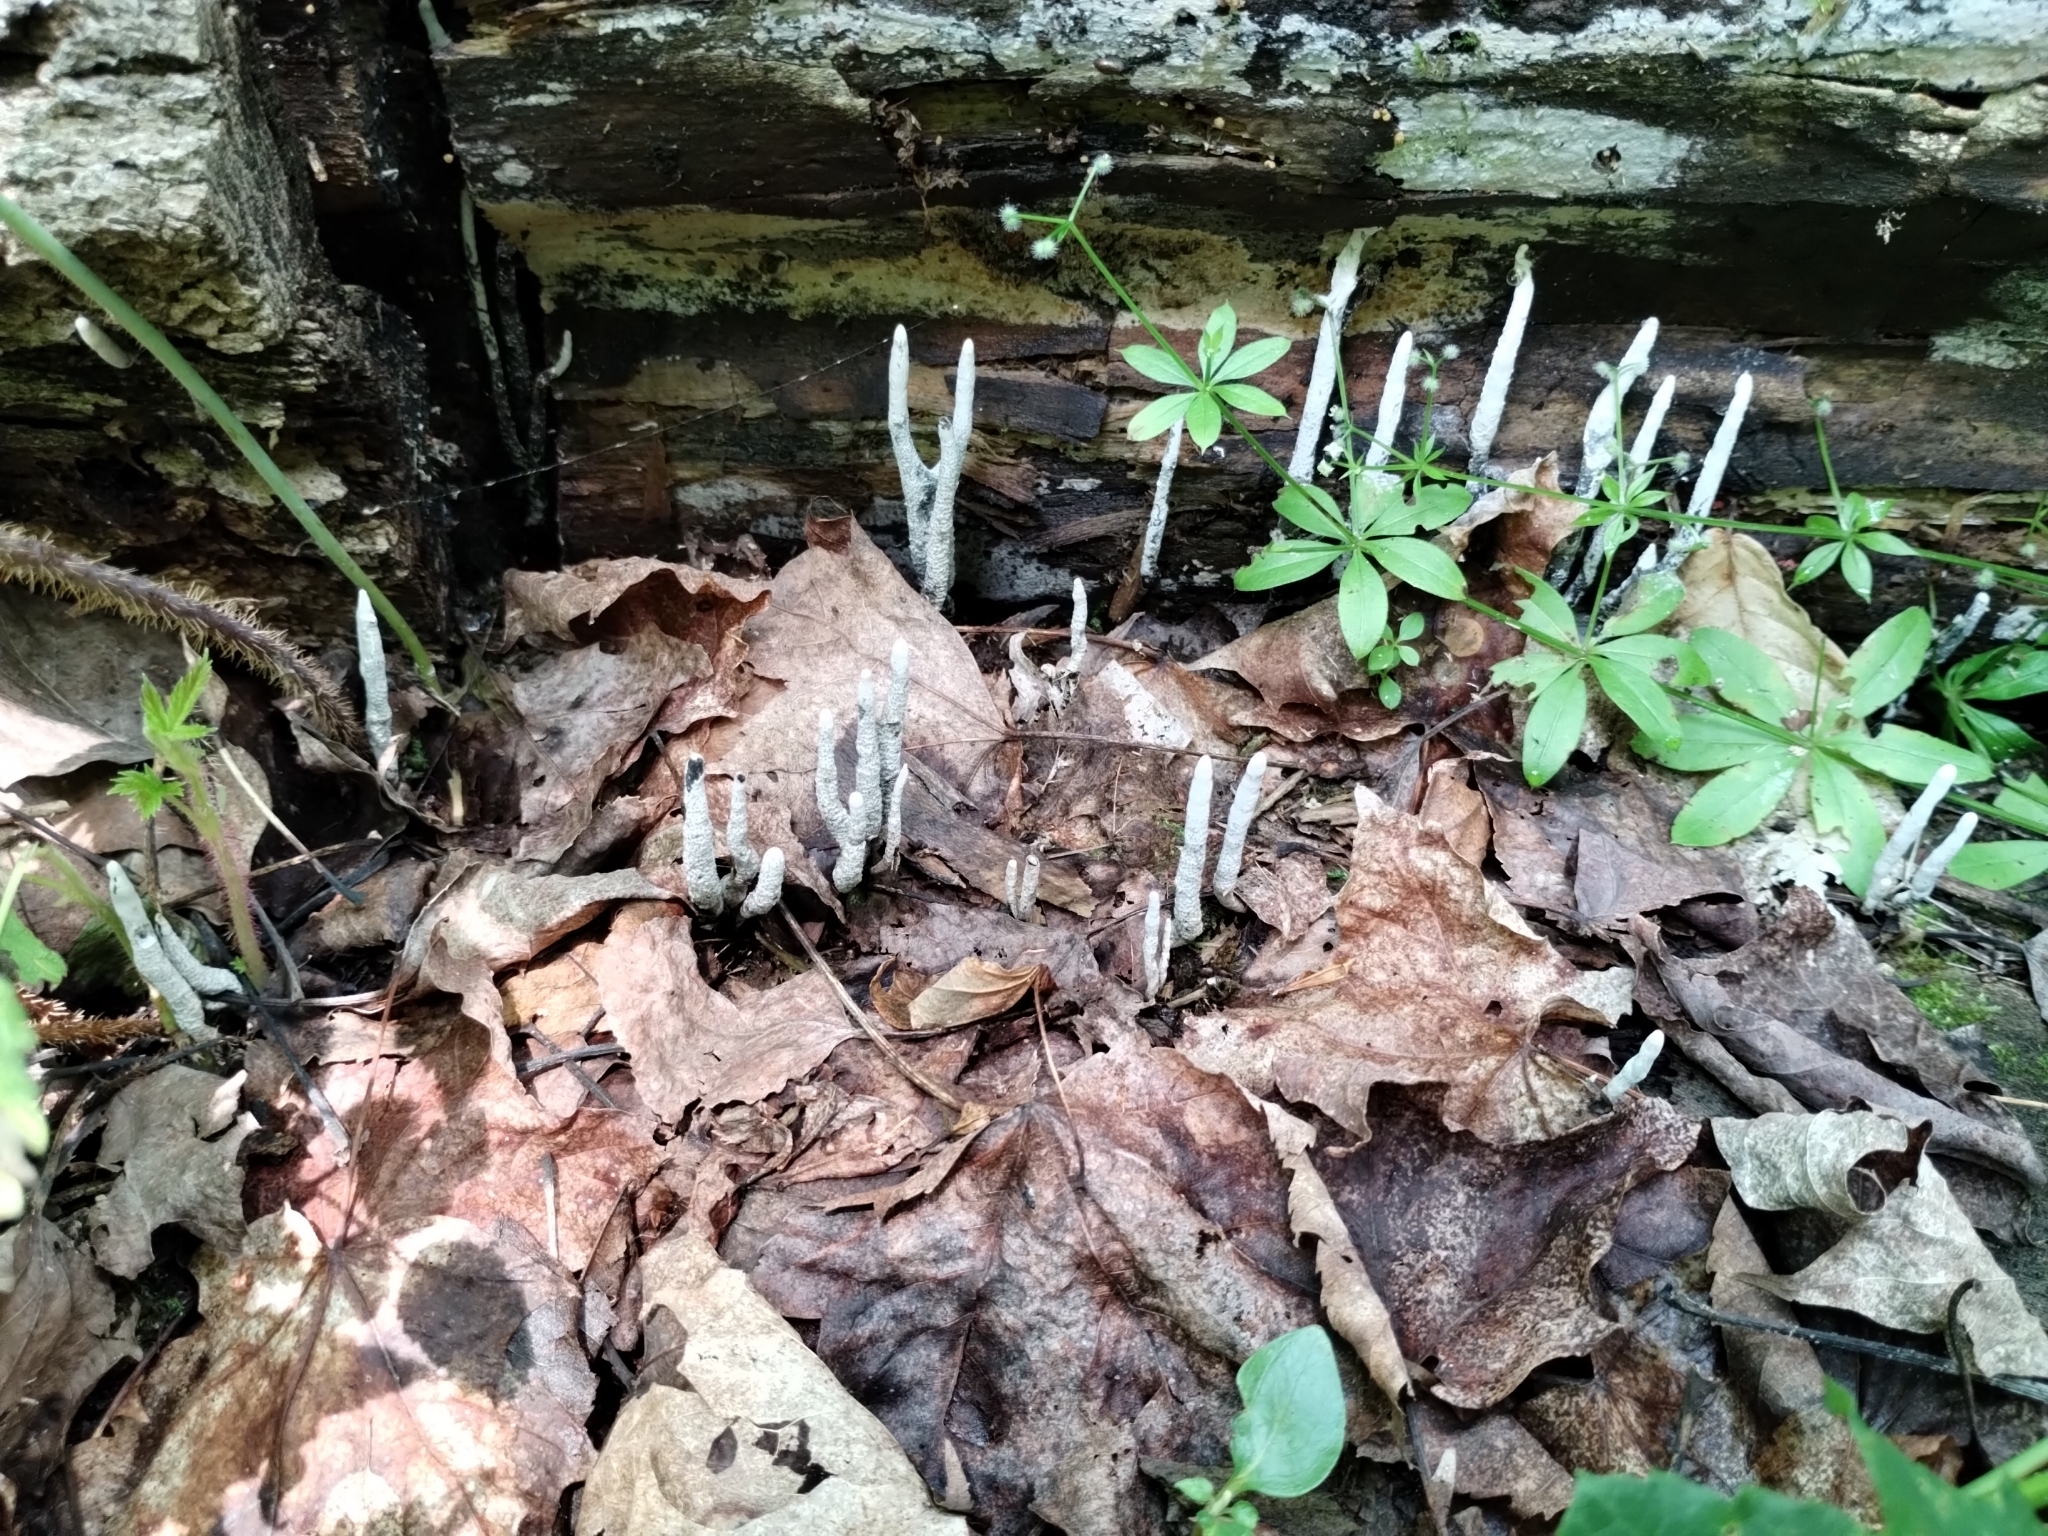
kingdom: Plantae
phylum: Tracheophyta
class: Magnoliopsida
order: Gentianales
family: Rubiaceae
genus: Galium
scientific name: Galium triflorum
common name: Fragrant bedstraw
